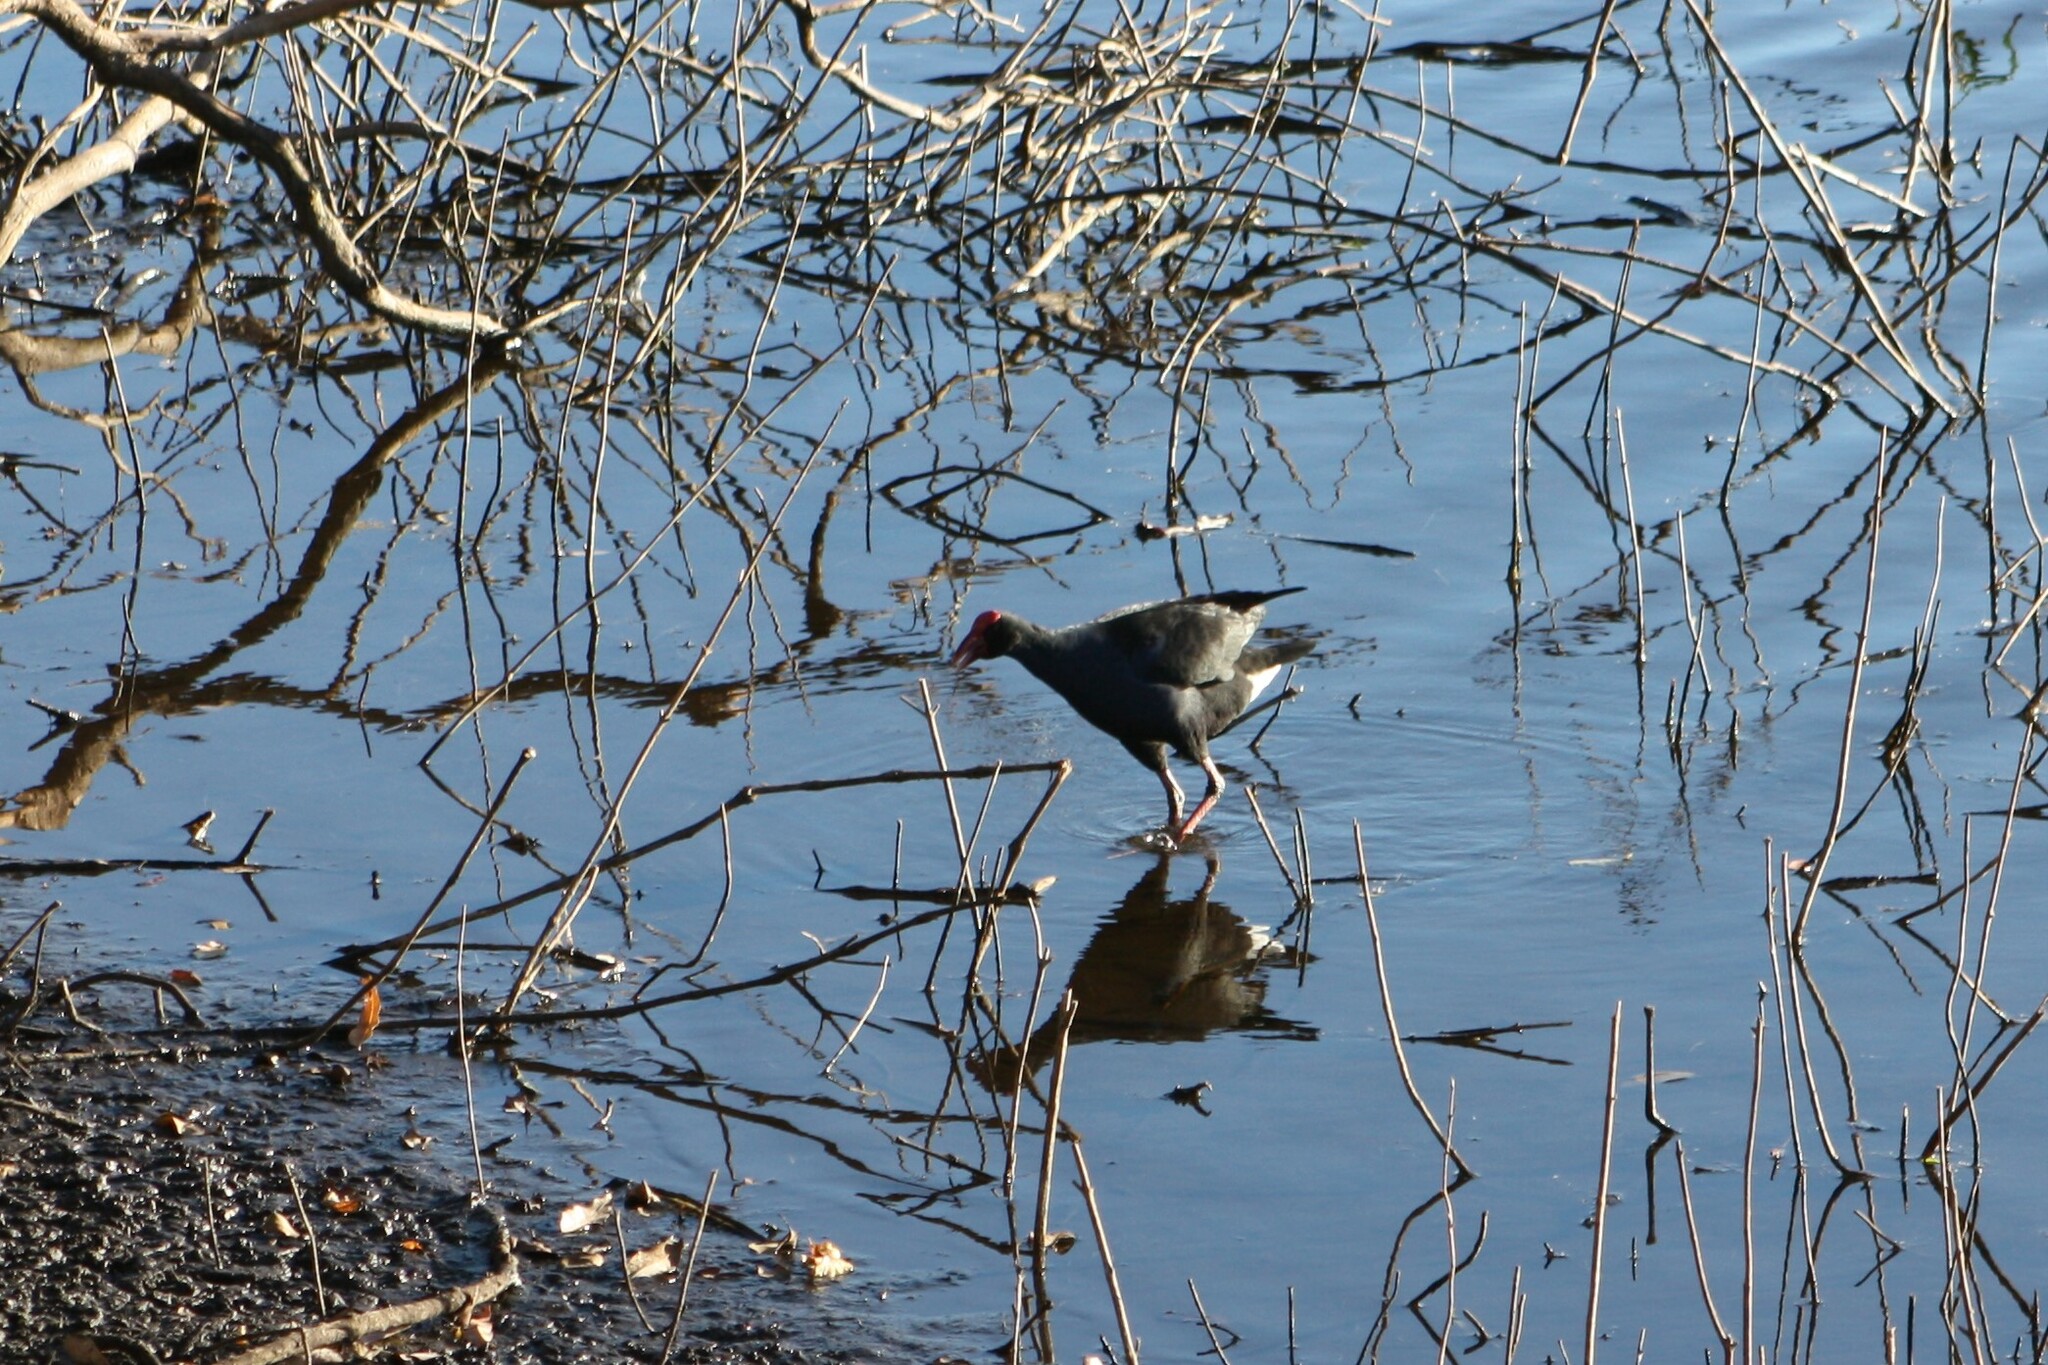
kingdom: Animalia
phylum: Chordata
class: Aves
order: Gruiformes
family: Rallidae
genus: Porphyrio
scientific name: Porphyrio melanotus
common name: Australasian swamphen
